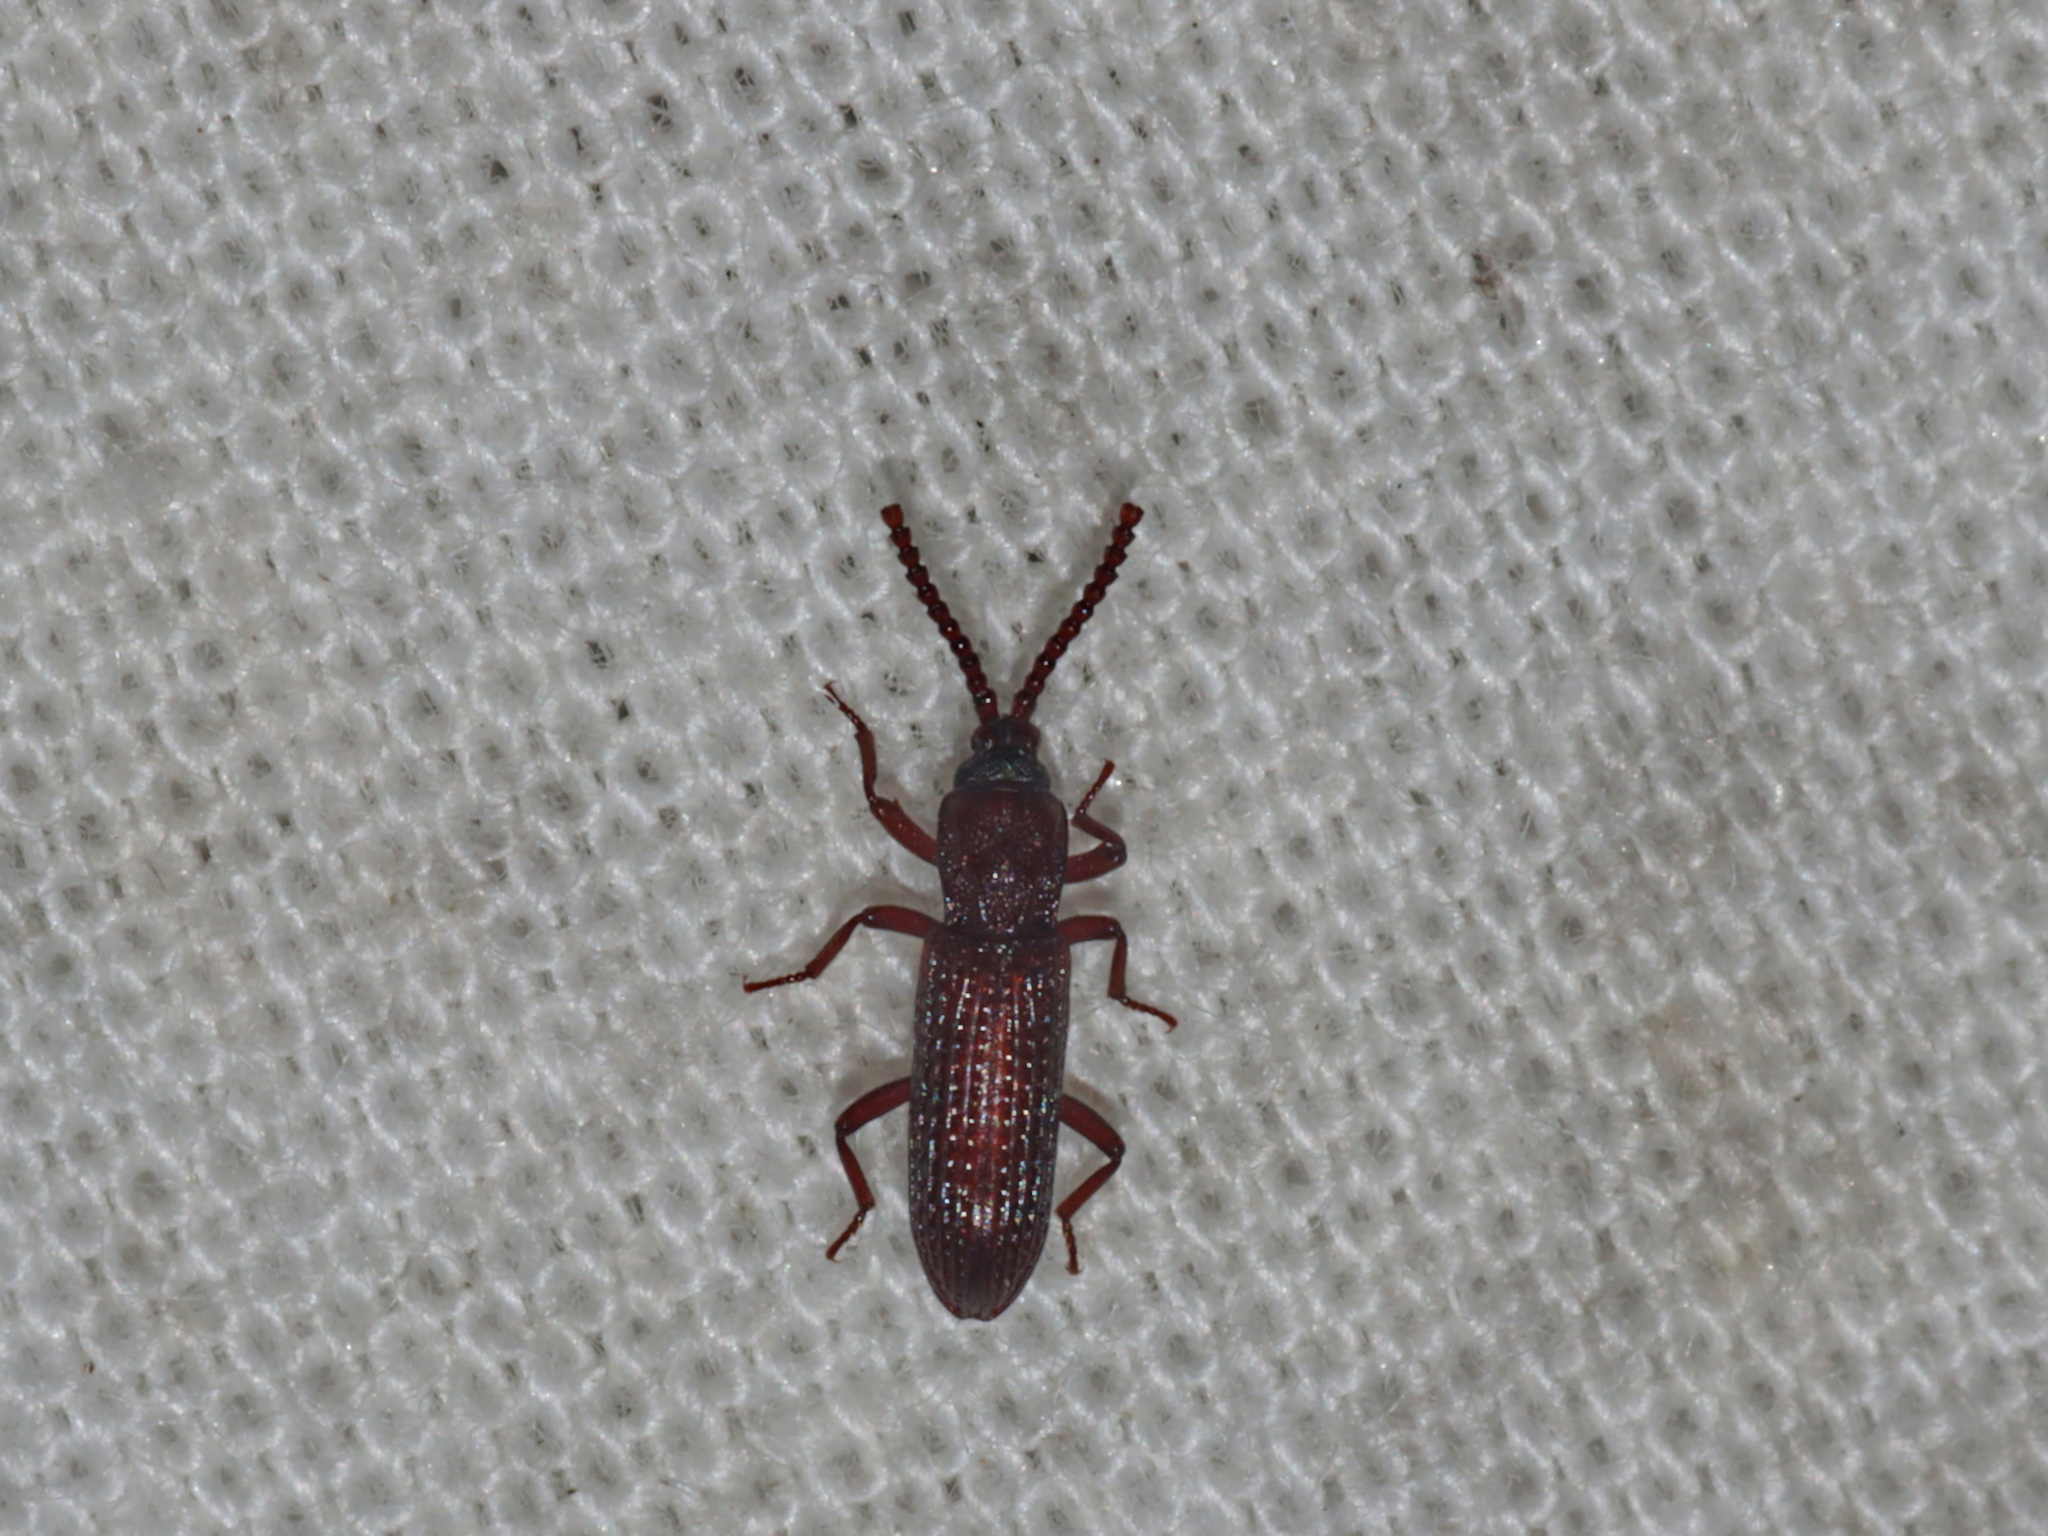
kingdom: Animalia
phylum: Arthropoda
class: Insecta
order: Coleoptera
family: Tenebrionidae
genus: Azarelius
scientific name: Azarelius
